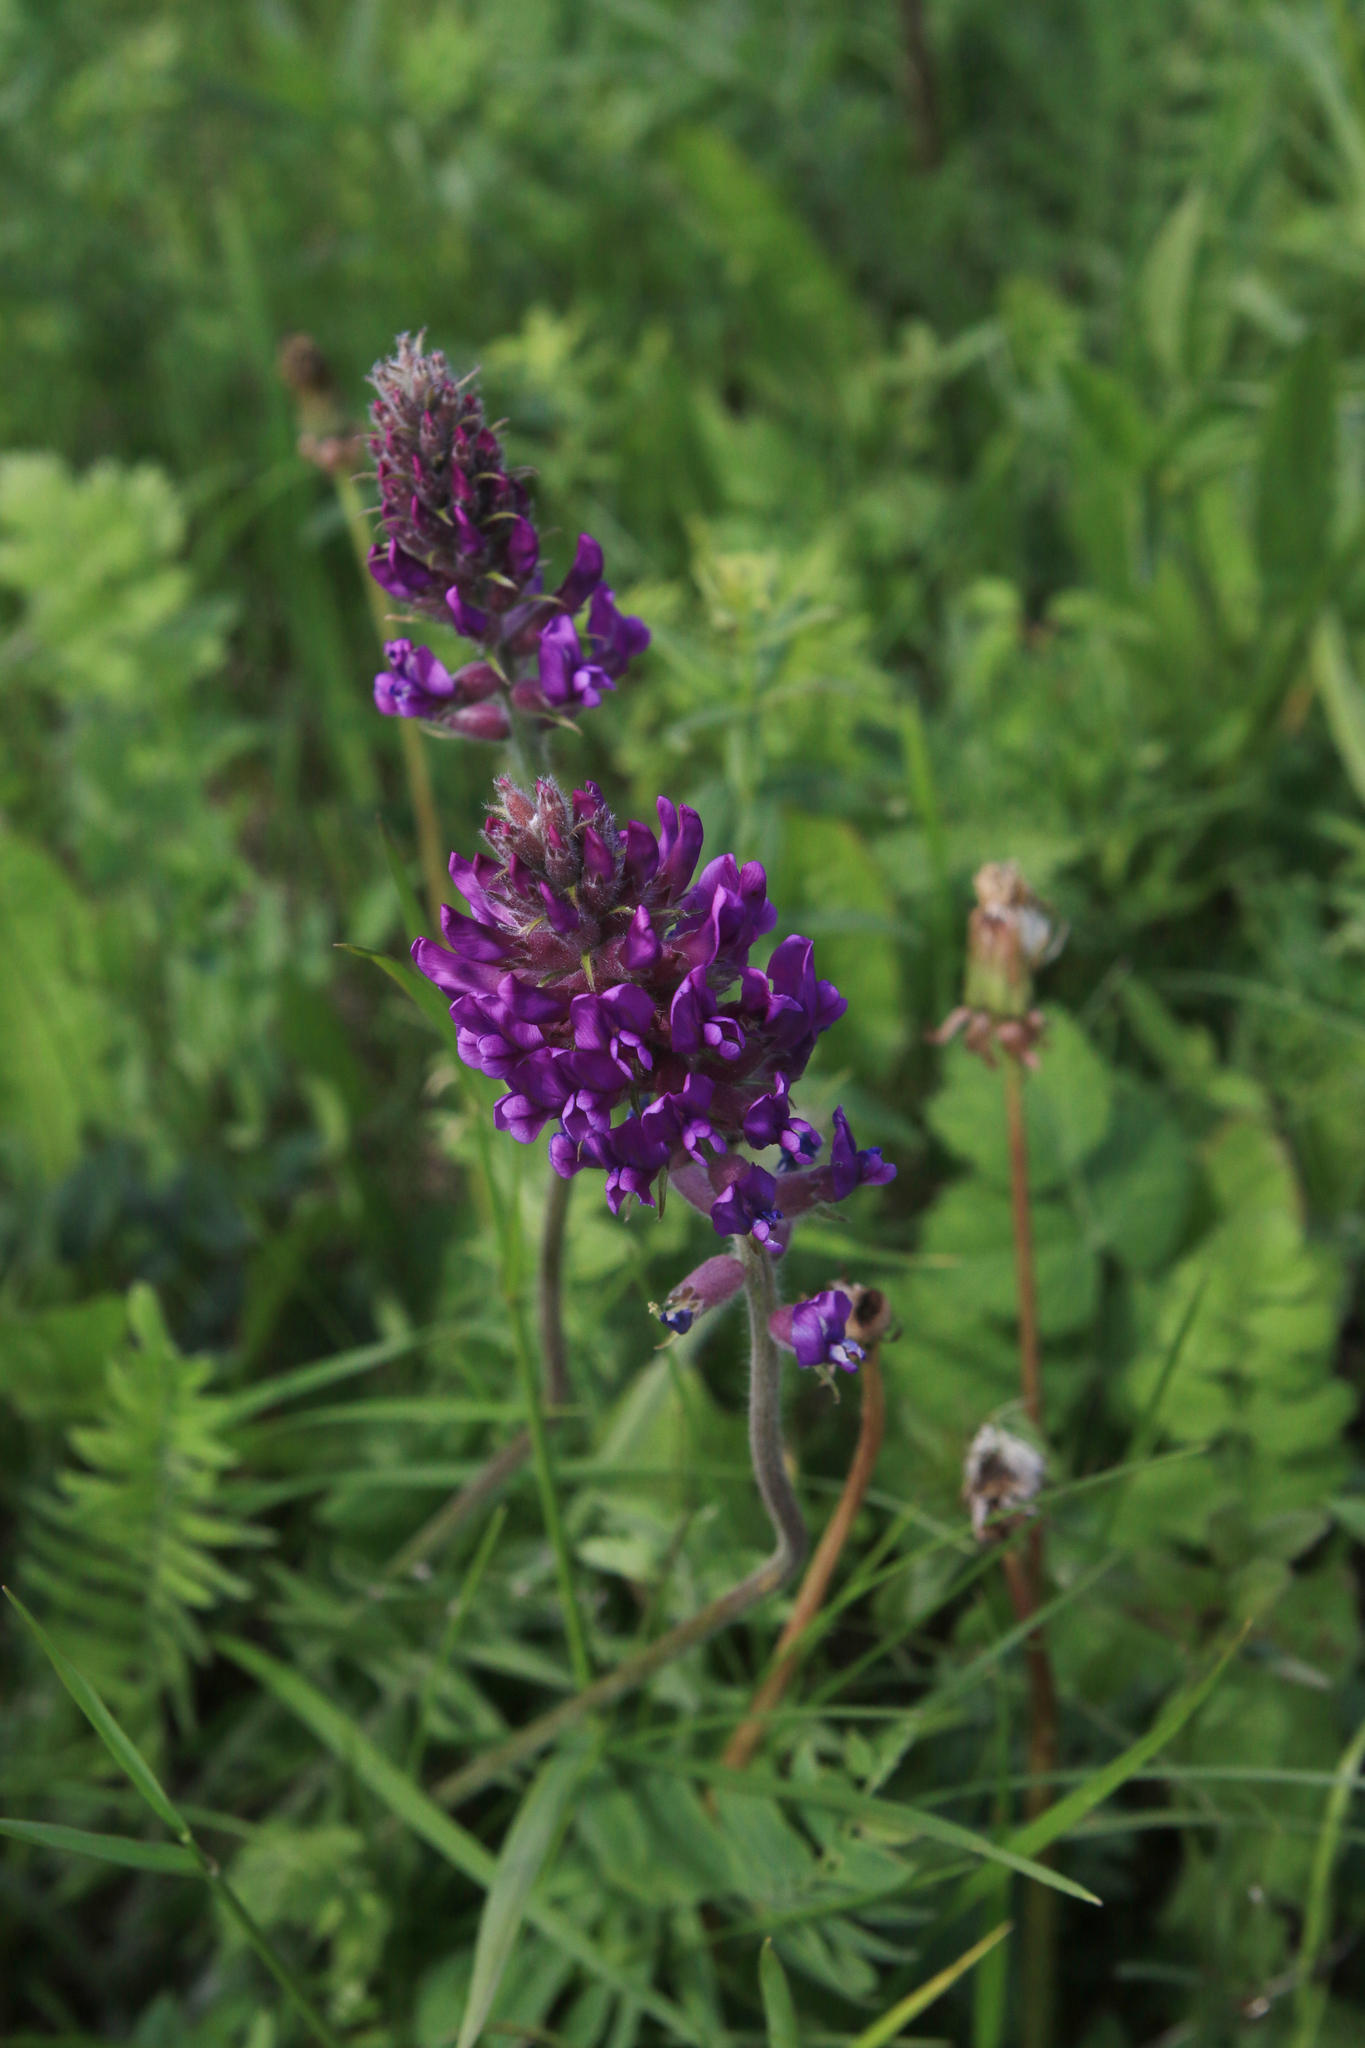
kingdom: Plantae
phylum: Tracheophyta
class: Magnoliopsida
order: Fabales
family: Fabaceae
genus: Oxytropis
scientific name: Oxytropis campanulata
